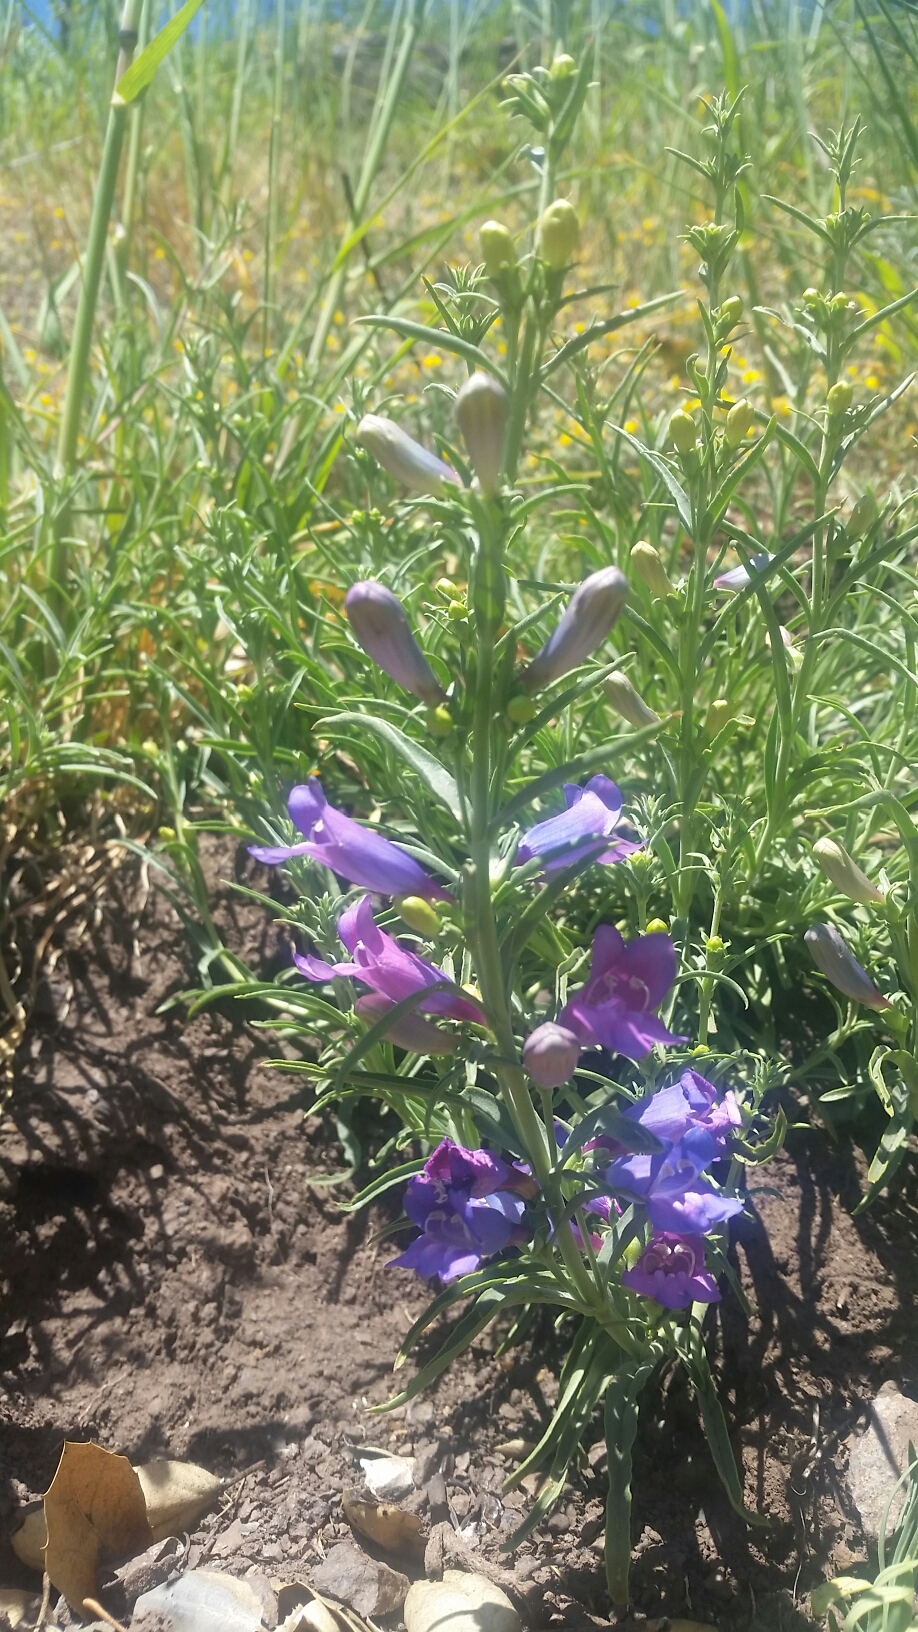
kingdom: Plantae
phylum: Tracheophyta
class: Magnoliopsida
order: Lamiales
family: Plantaginaceae
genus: Penstemon
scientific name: Penstemon heterophyllus
